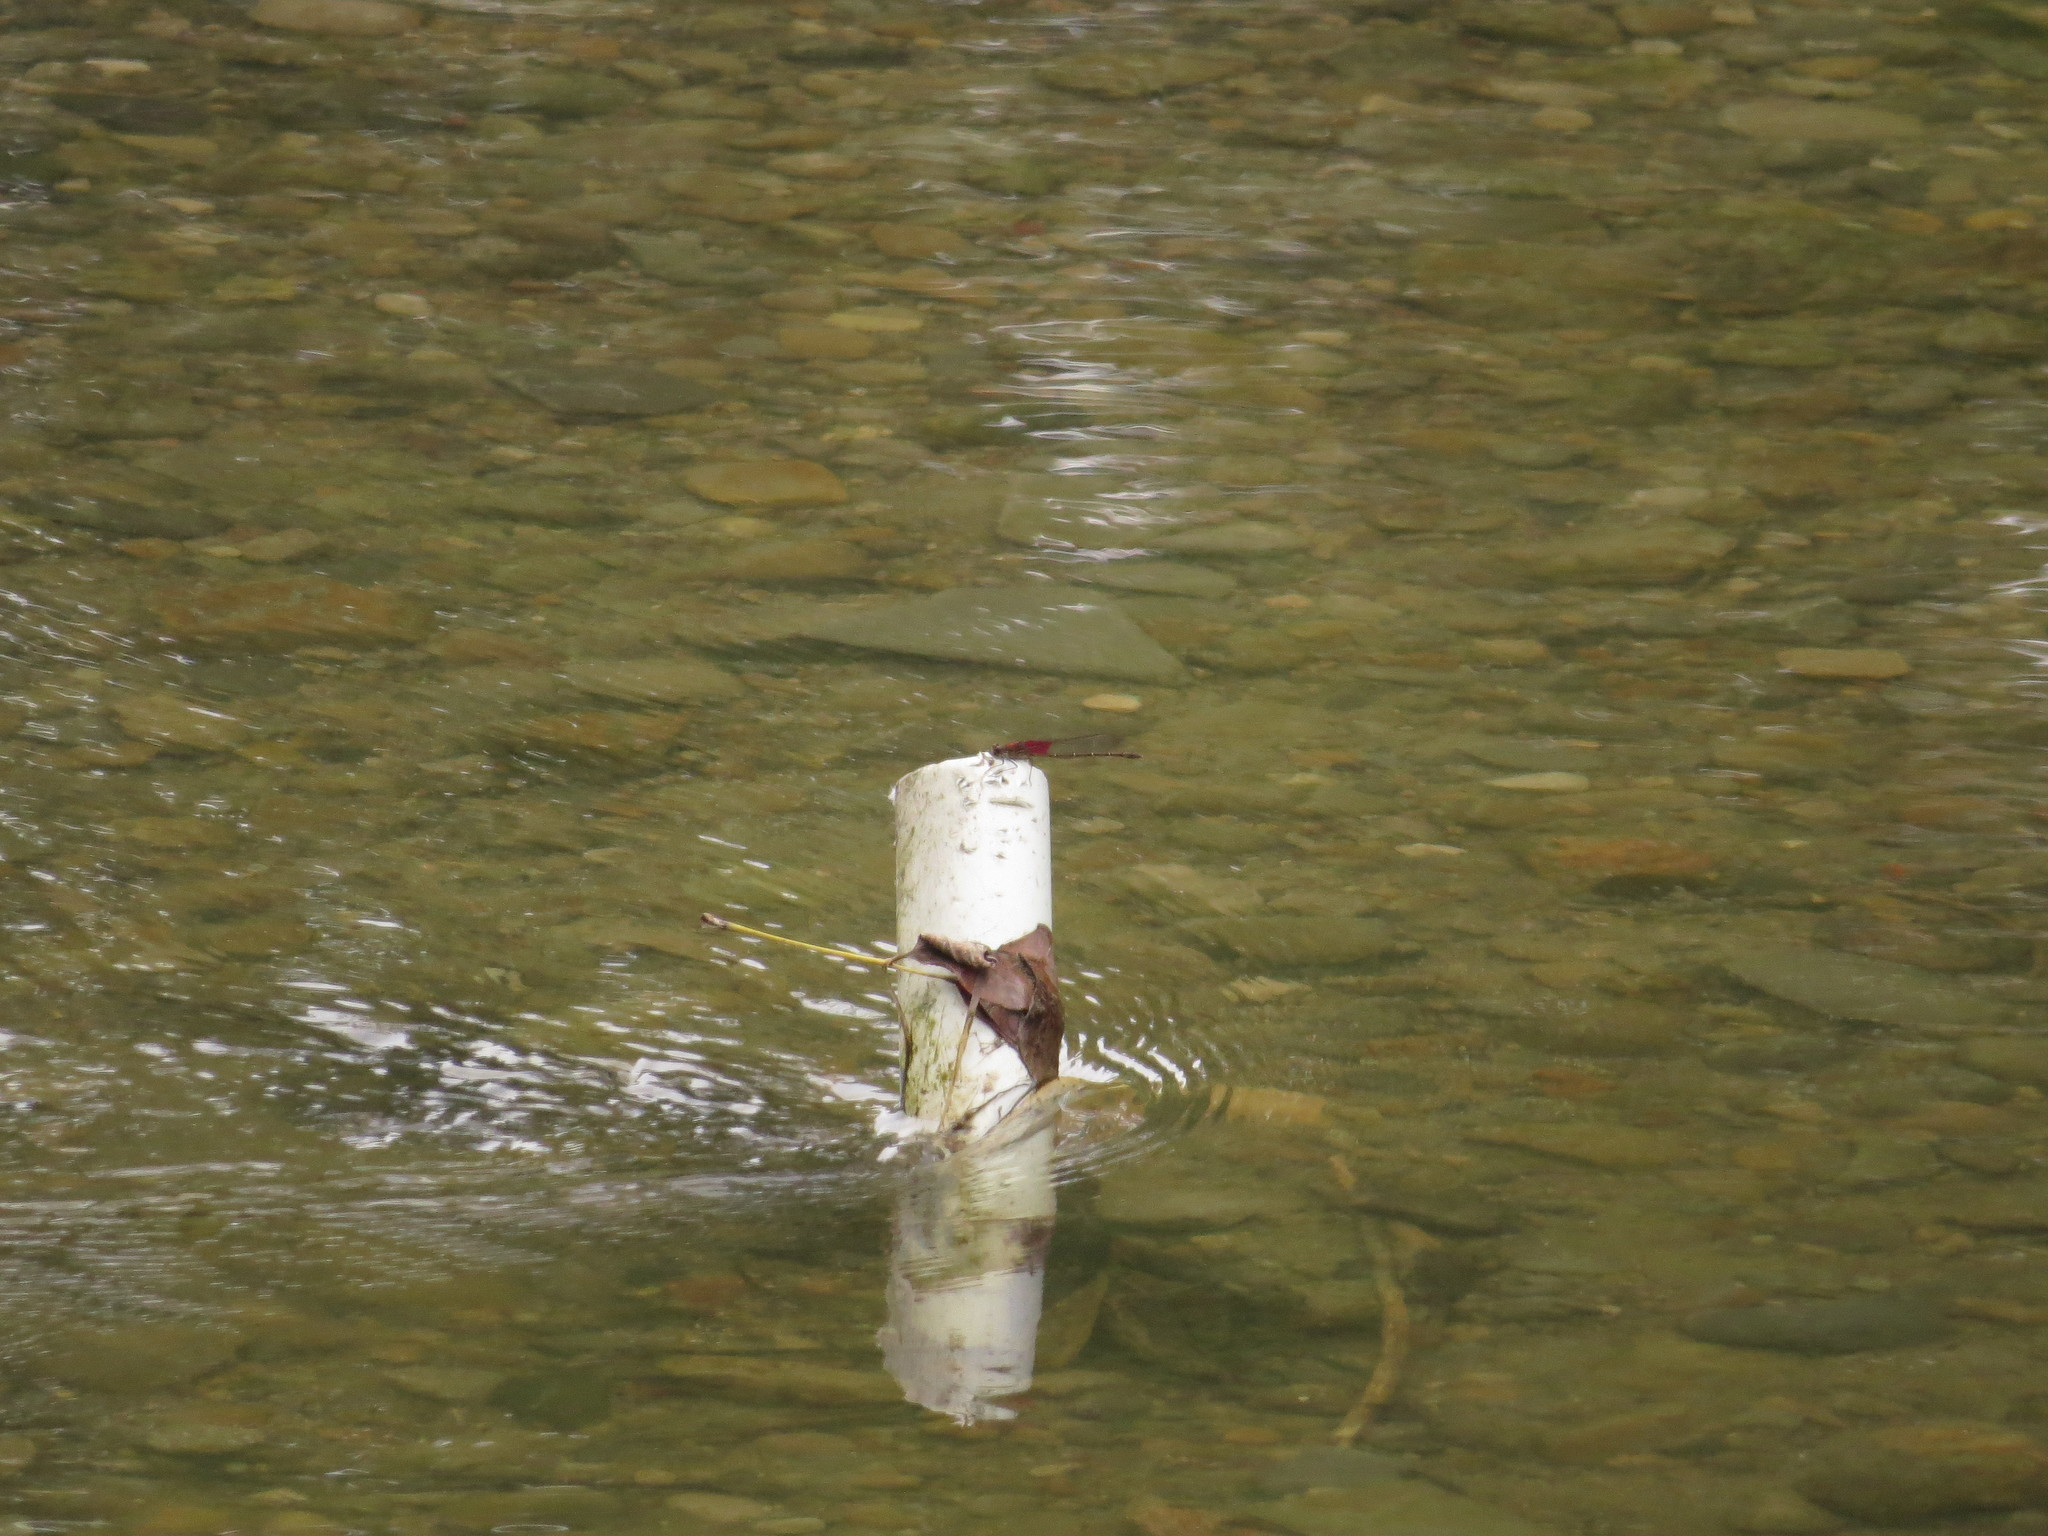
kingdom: Animalia
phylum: Arthropoda
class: Insecta
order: Odonata
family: Calopterygidae
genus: Hetaerina
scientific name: Hetaerina americana
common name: American rubyspot
